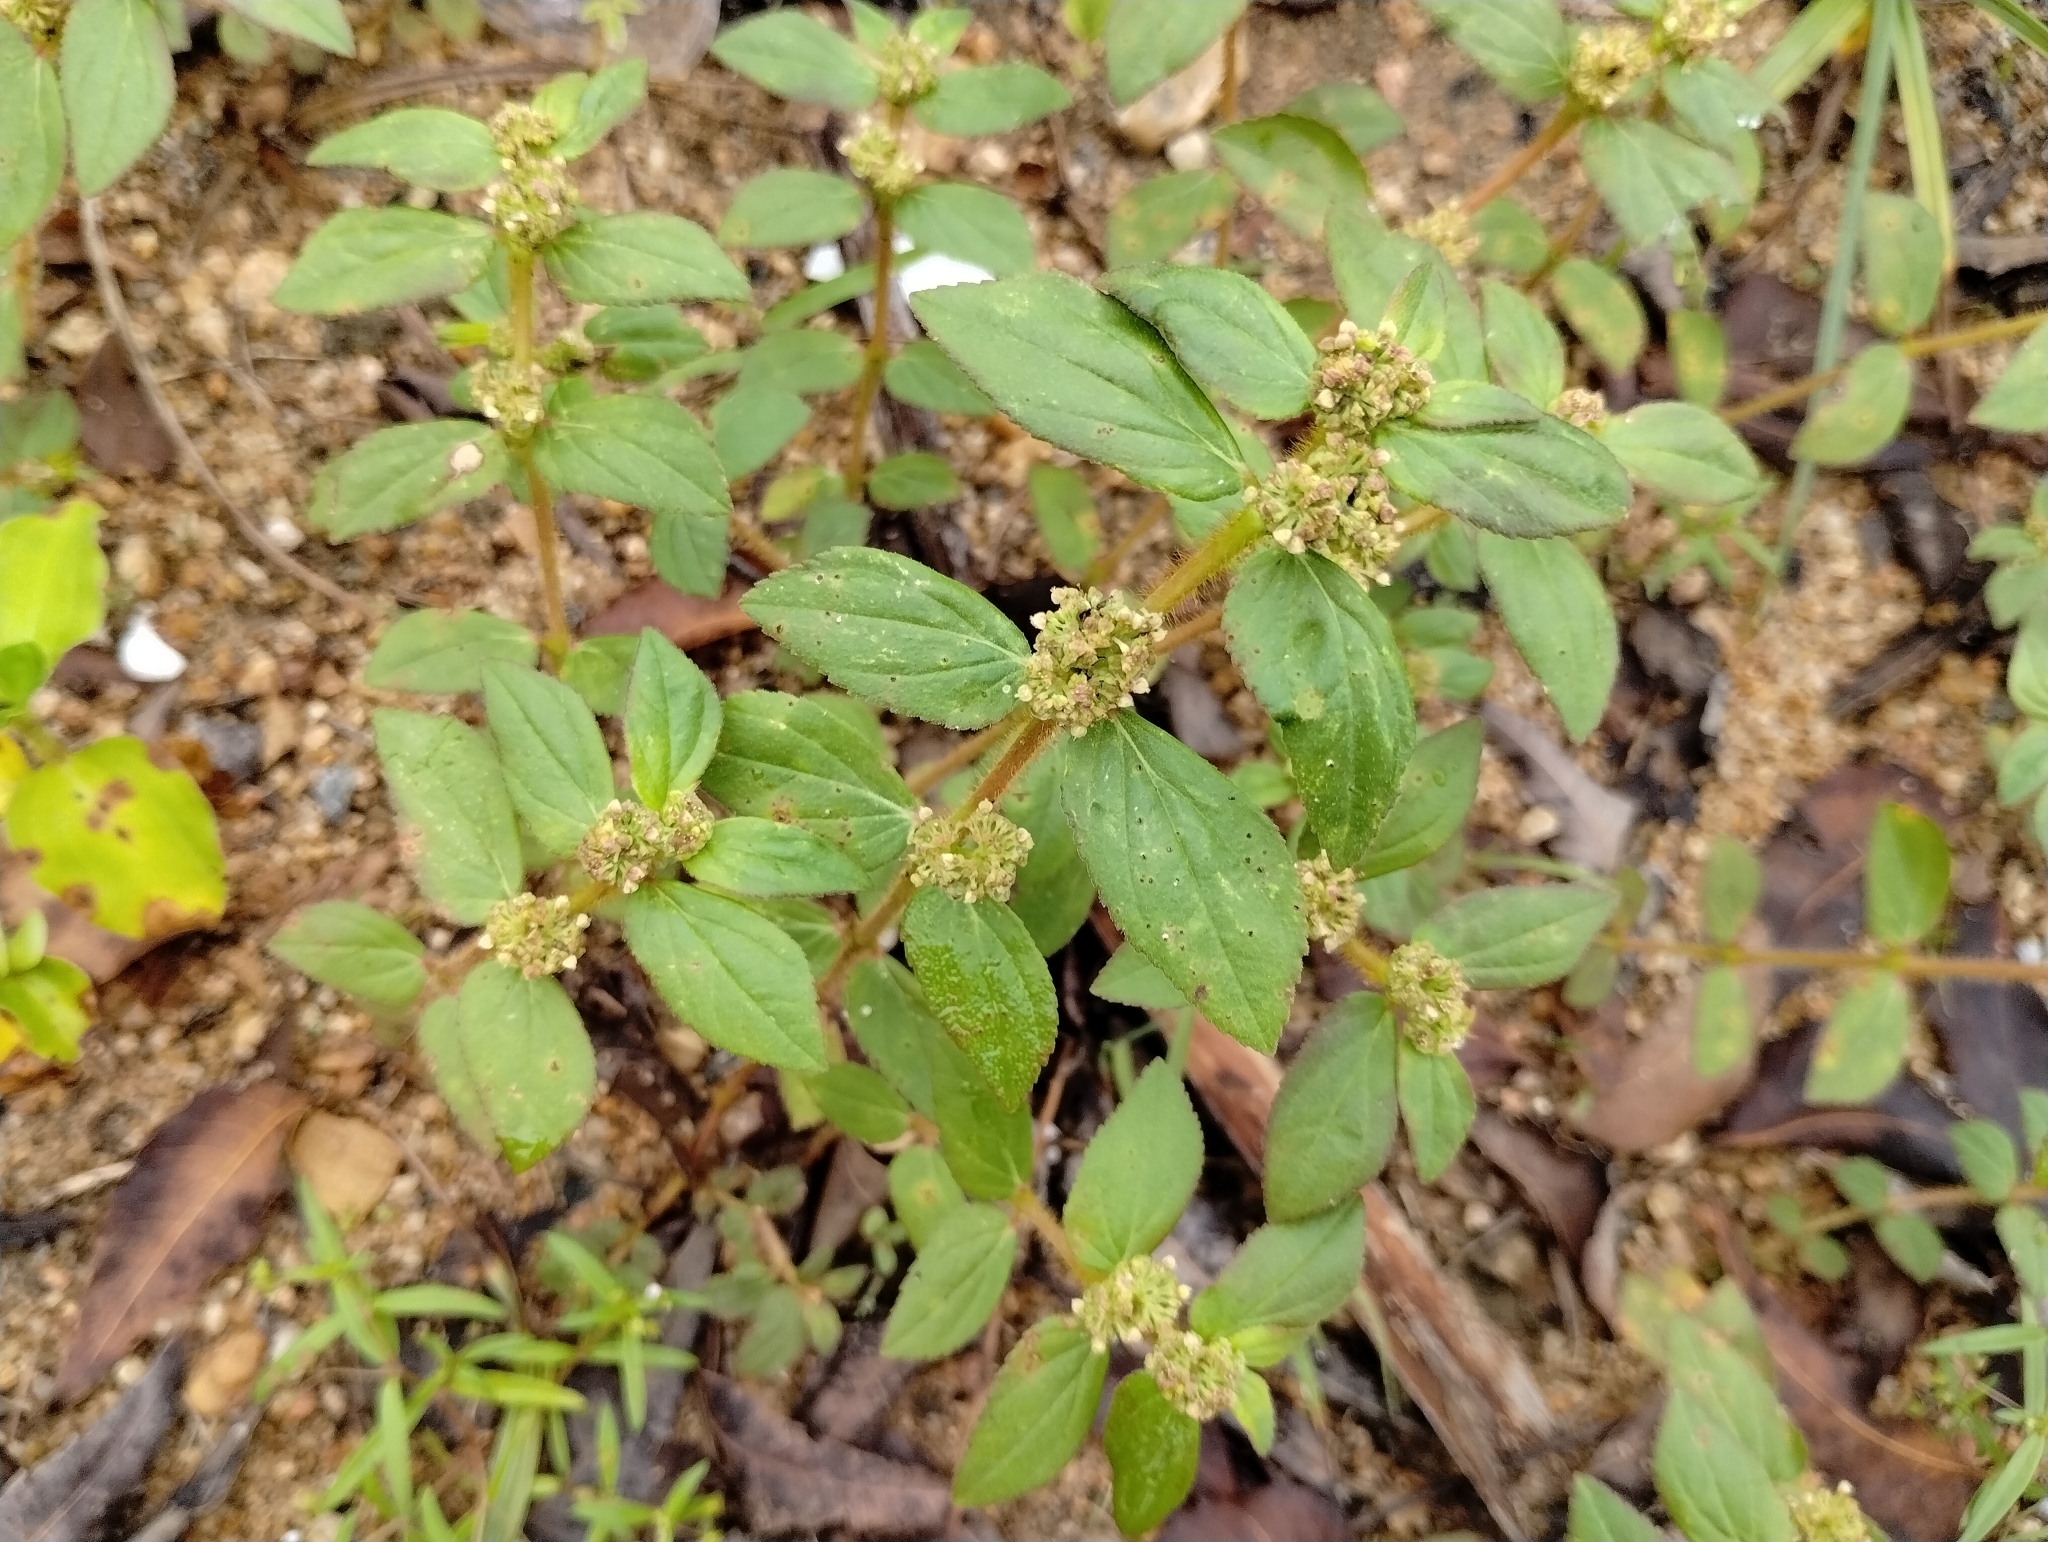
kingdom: Plantae
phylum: Tracheophyta
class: Magnoliopsida
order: Malpighiales
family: Euphorbiaceae
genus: Euphorbia
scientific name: Euphorbia hirta
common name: Pillpod sandmat
